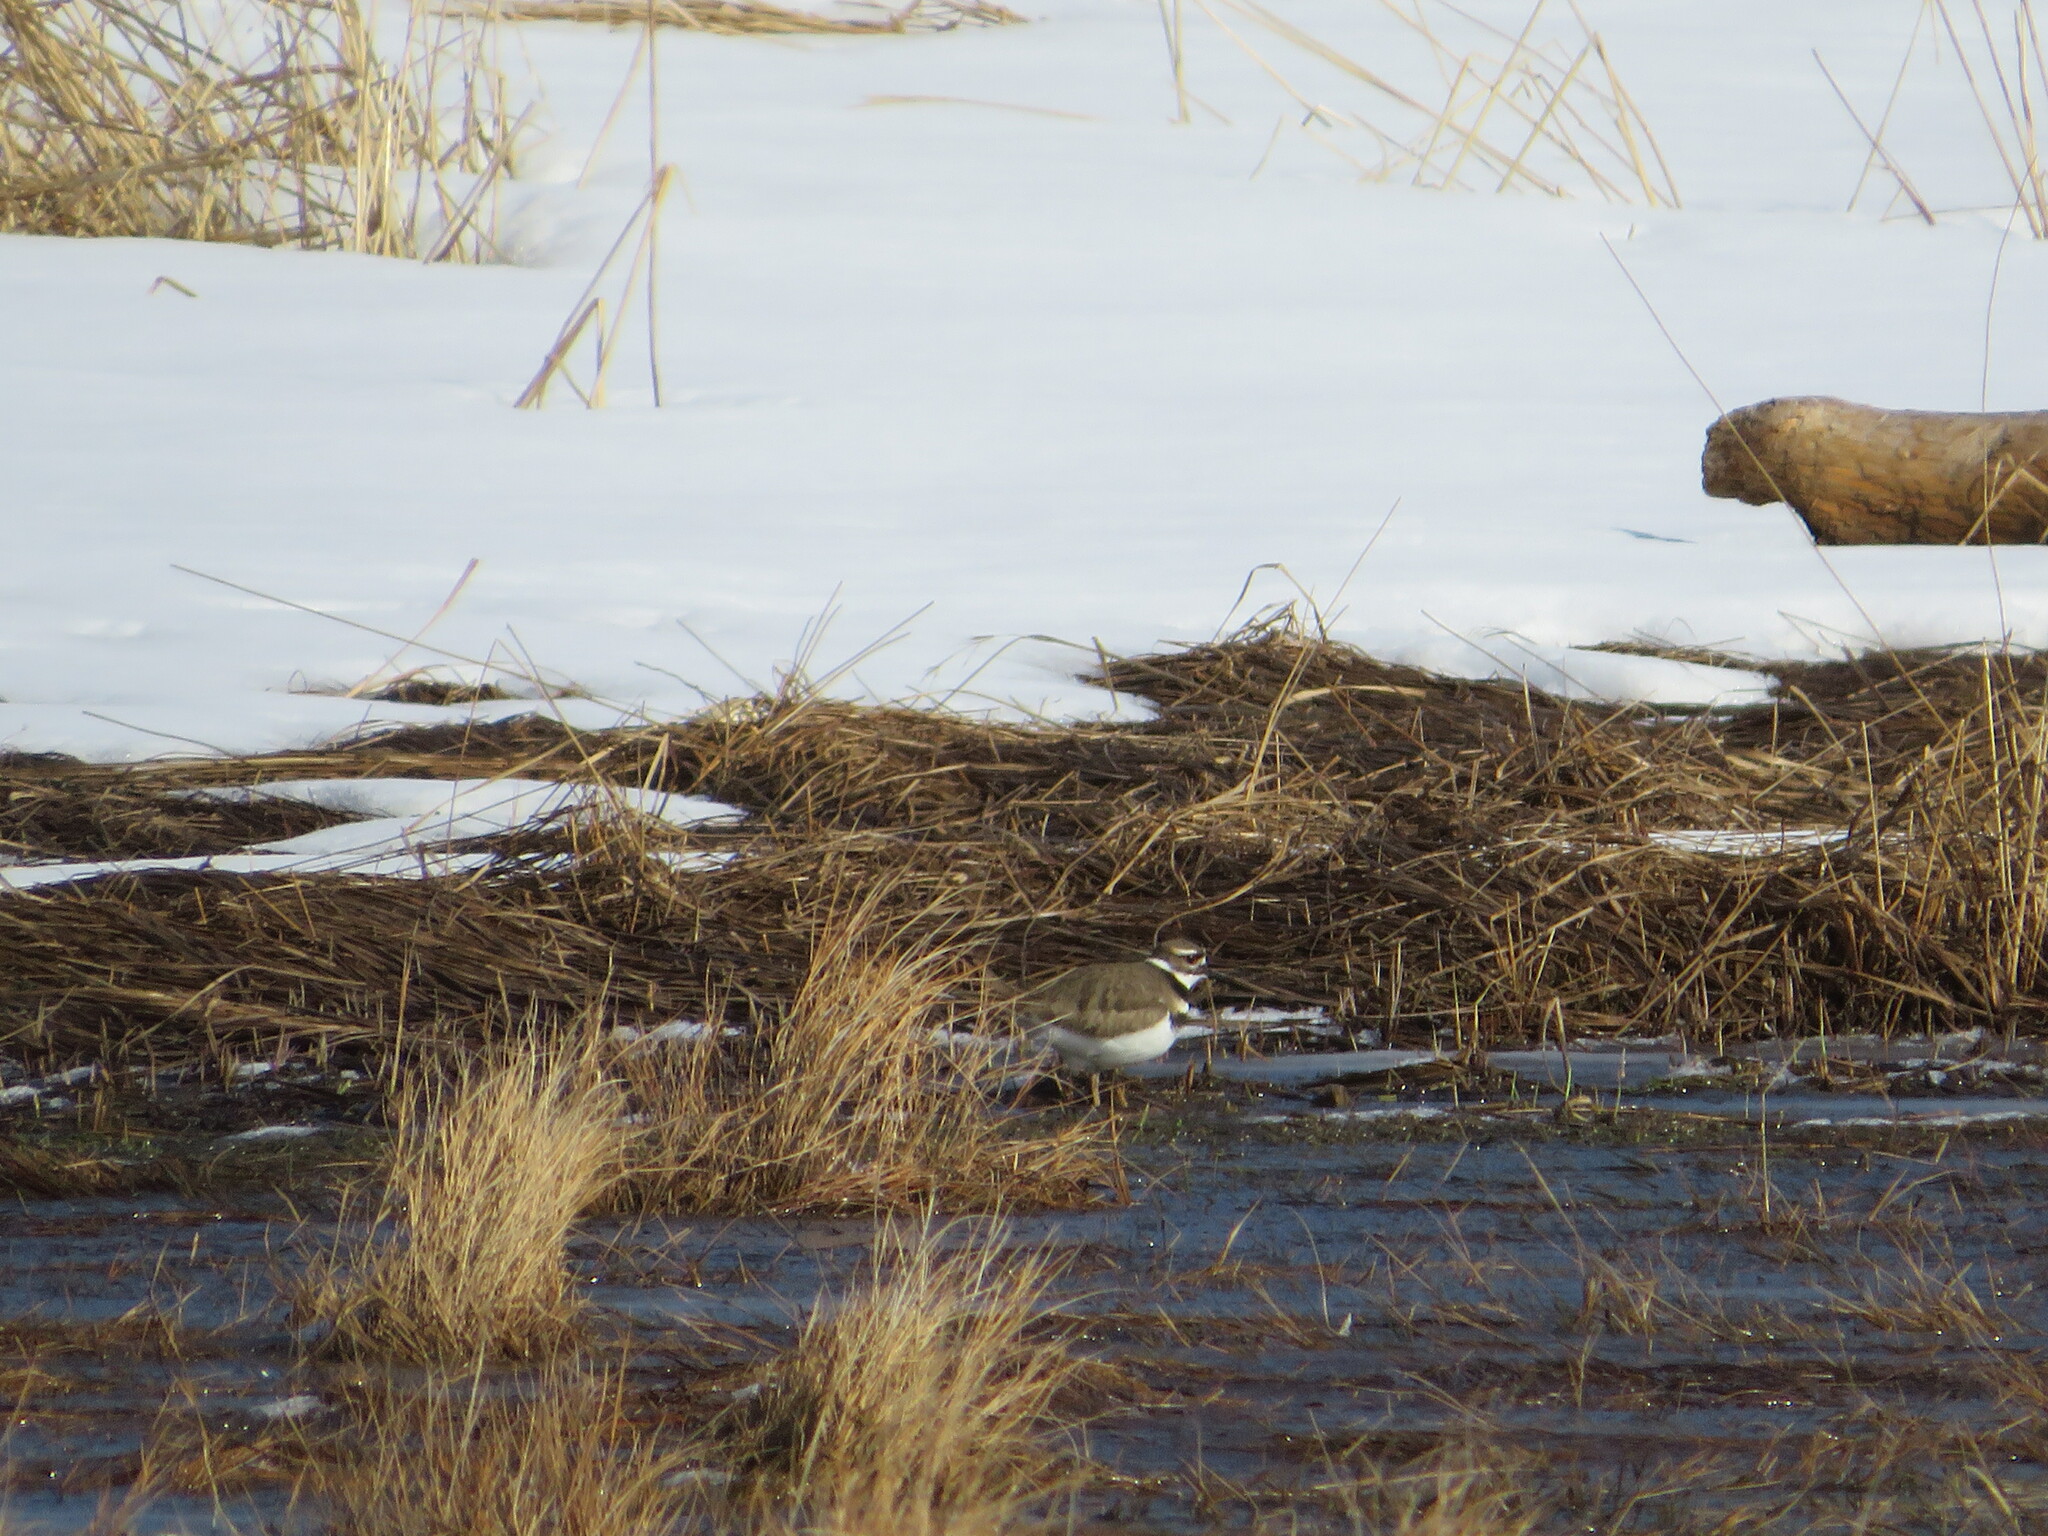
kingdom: Animalia
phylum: Chordata
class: Aves
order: Charadriiformes
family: Charadriidae
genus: Charadrius
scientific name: Charadrius vociferus
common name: Killdeer
